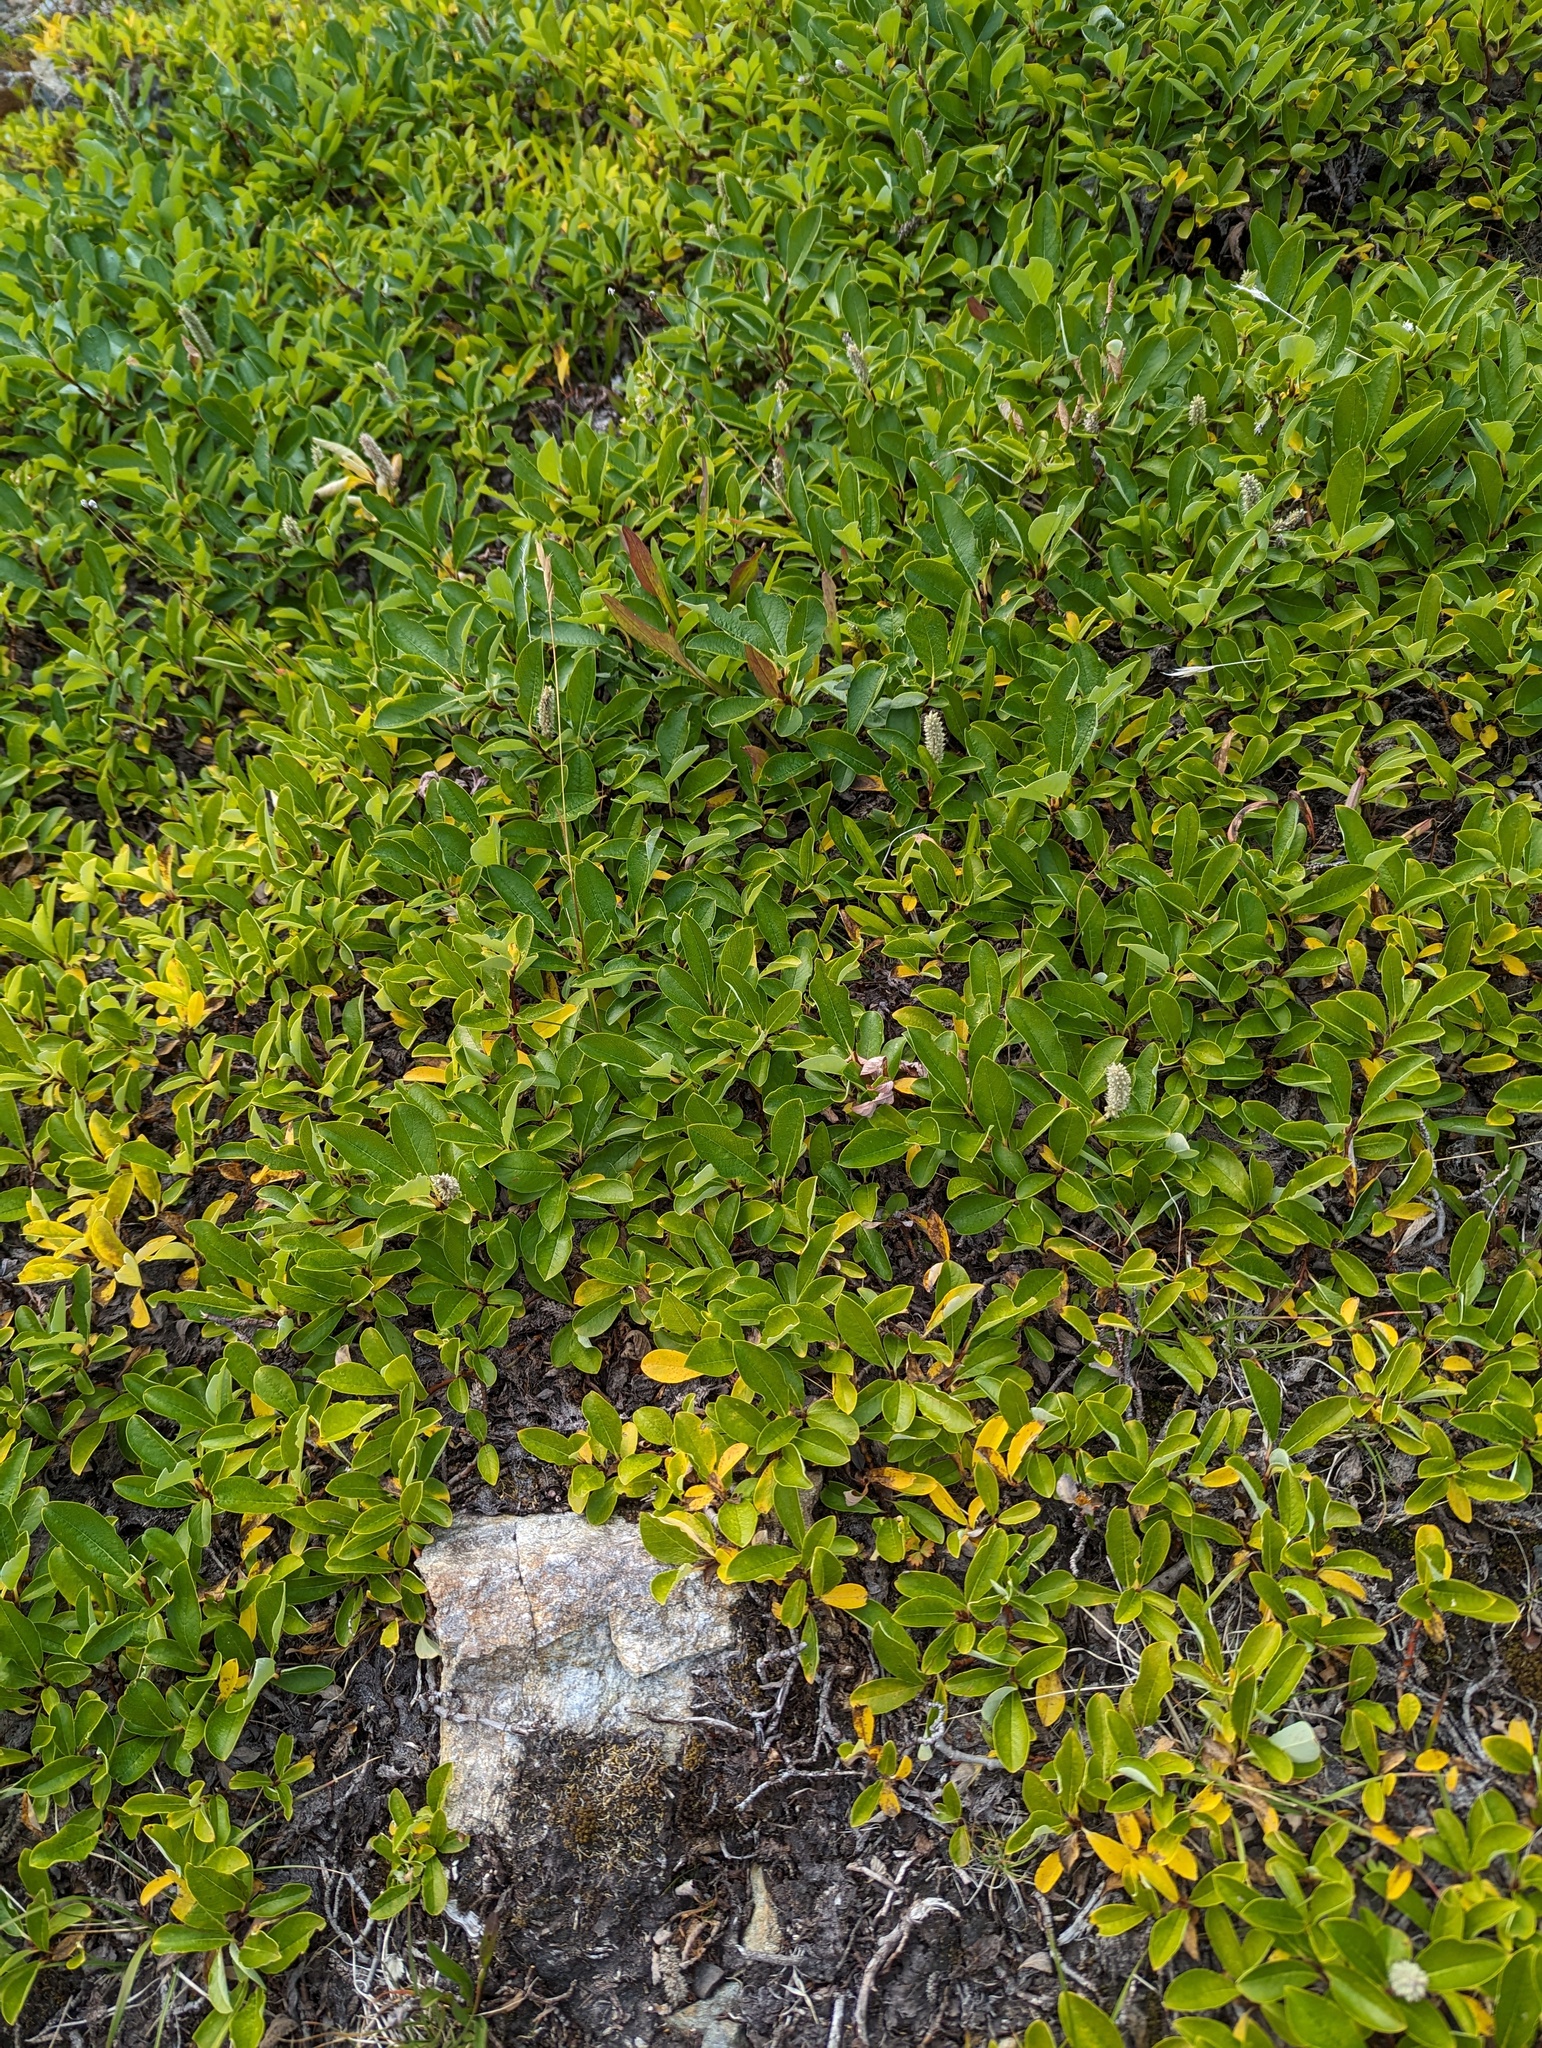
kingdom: Plantae
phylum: Tracheophyta
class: Magnoliopsida
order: Malpighiales
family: Salicaceae
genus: Salix
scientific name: Salix arctica
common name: Arctic willow
